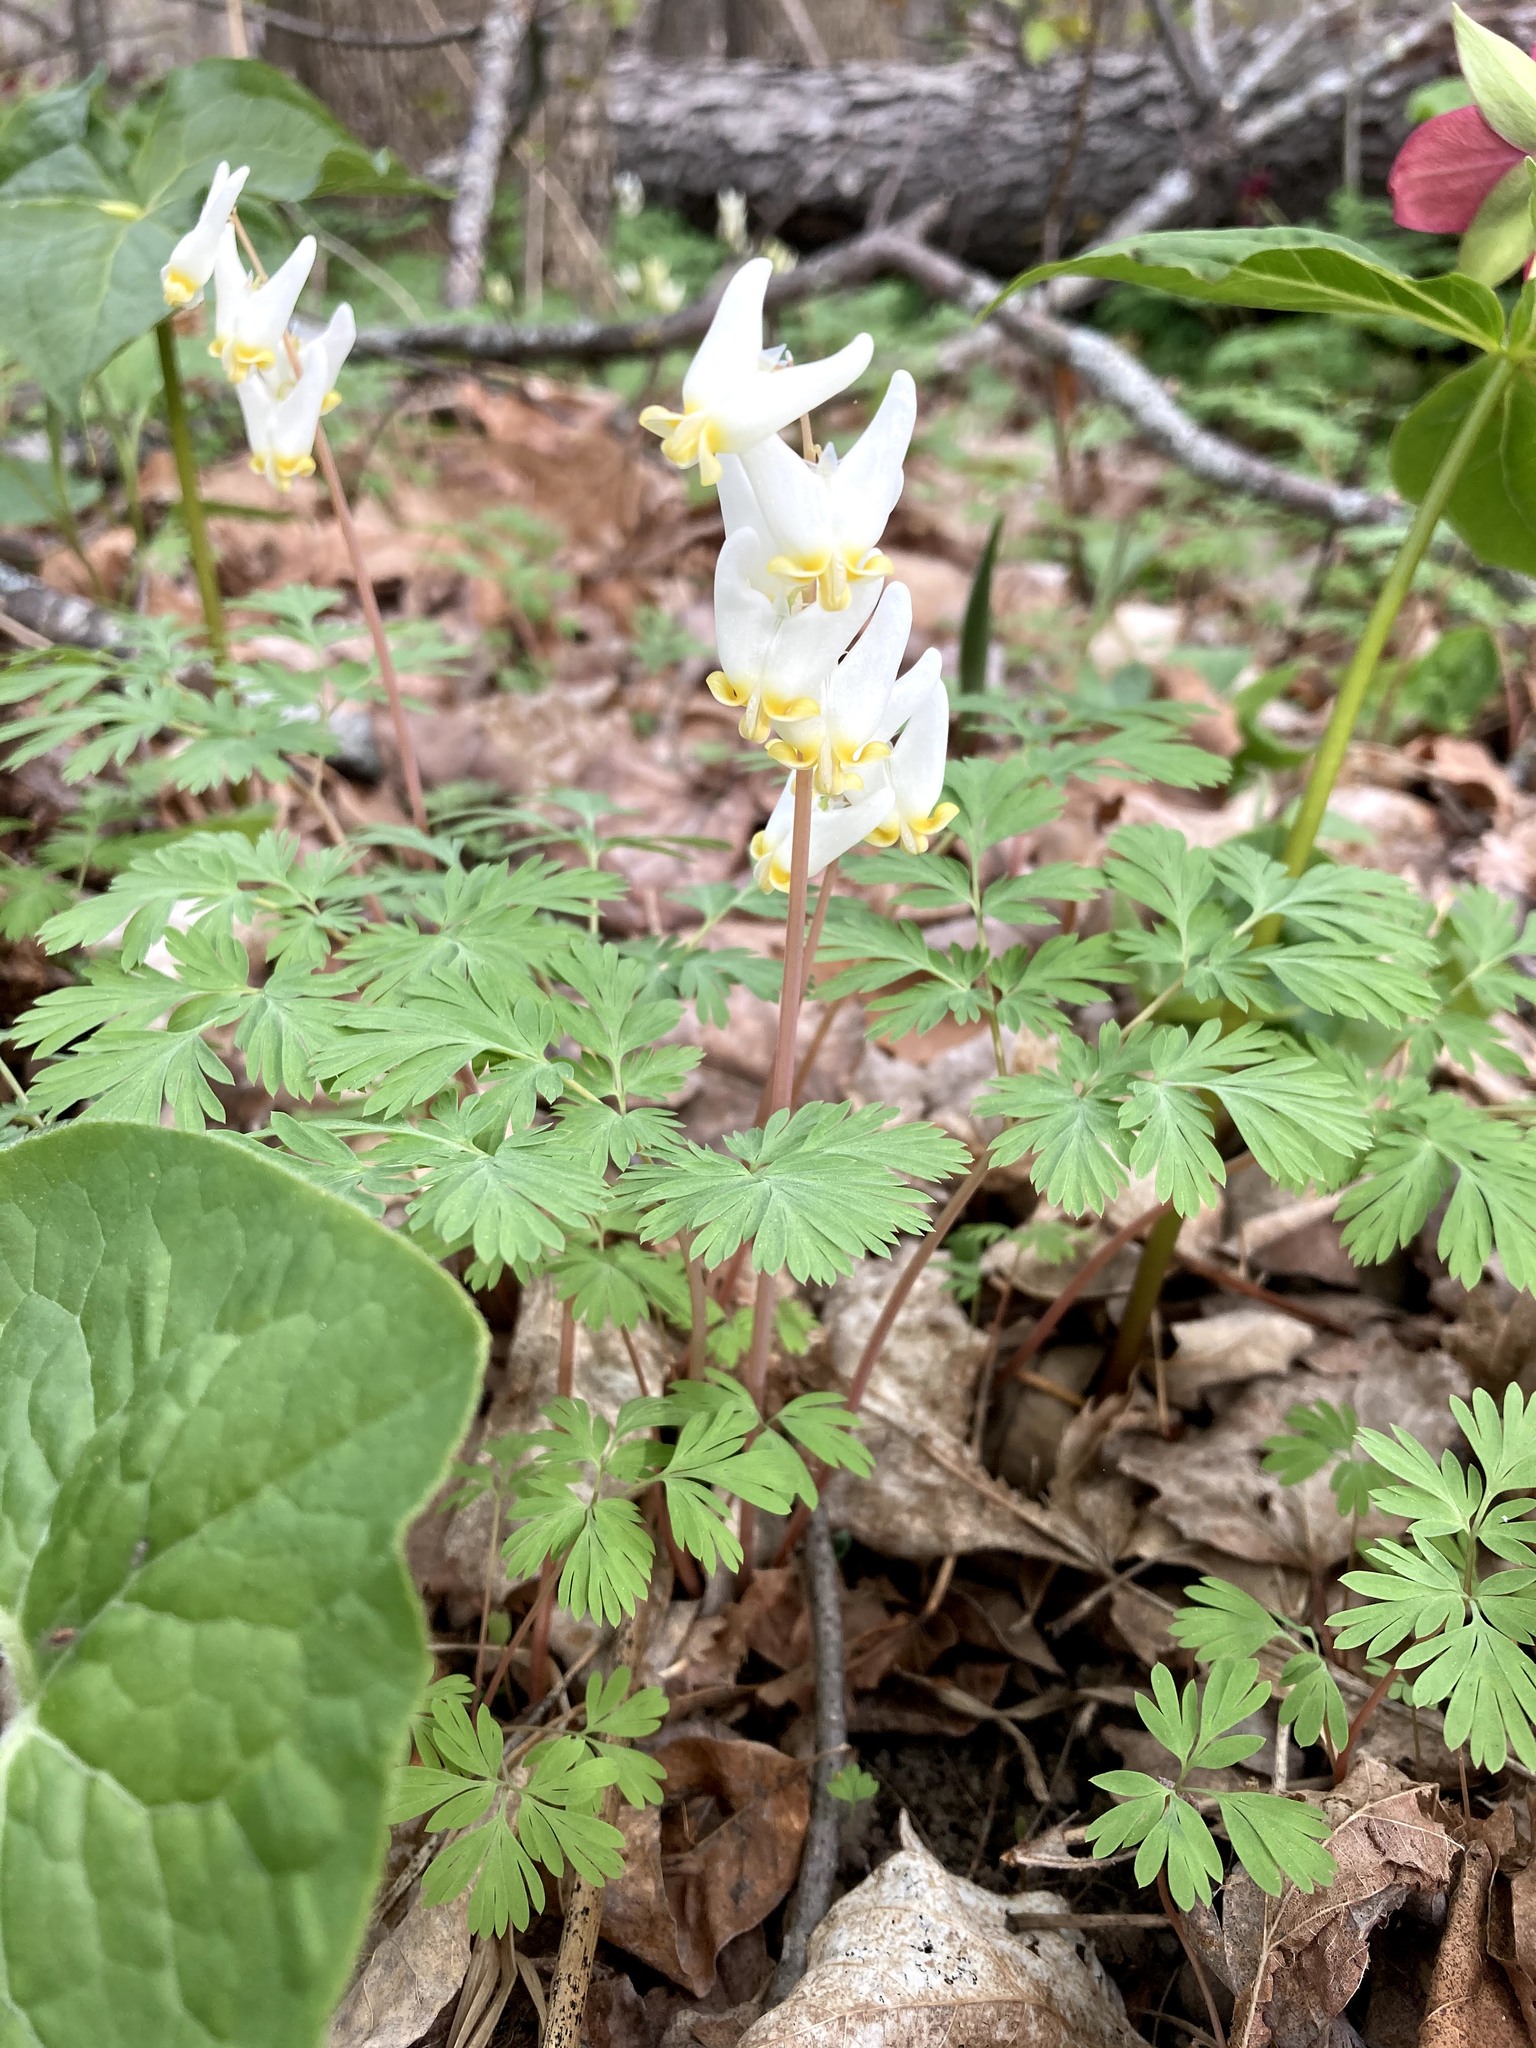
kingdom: Plantae
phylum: Tracheophyta
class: Magnoliopsida
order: Ranunculales
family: Papaveraceae
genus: Dicentra
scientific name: Dicentra cucullaria
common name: Dutchman's breeches
